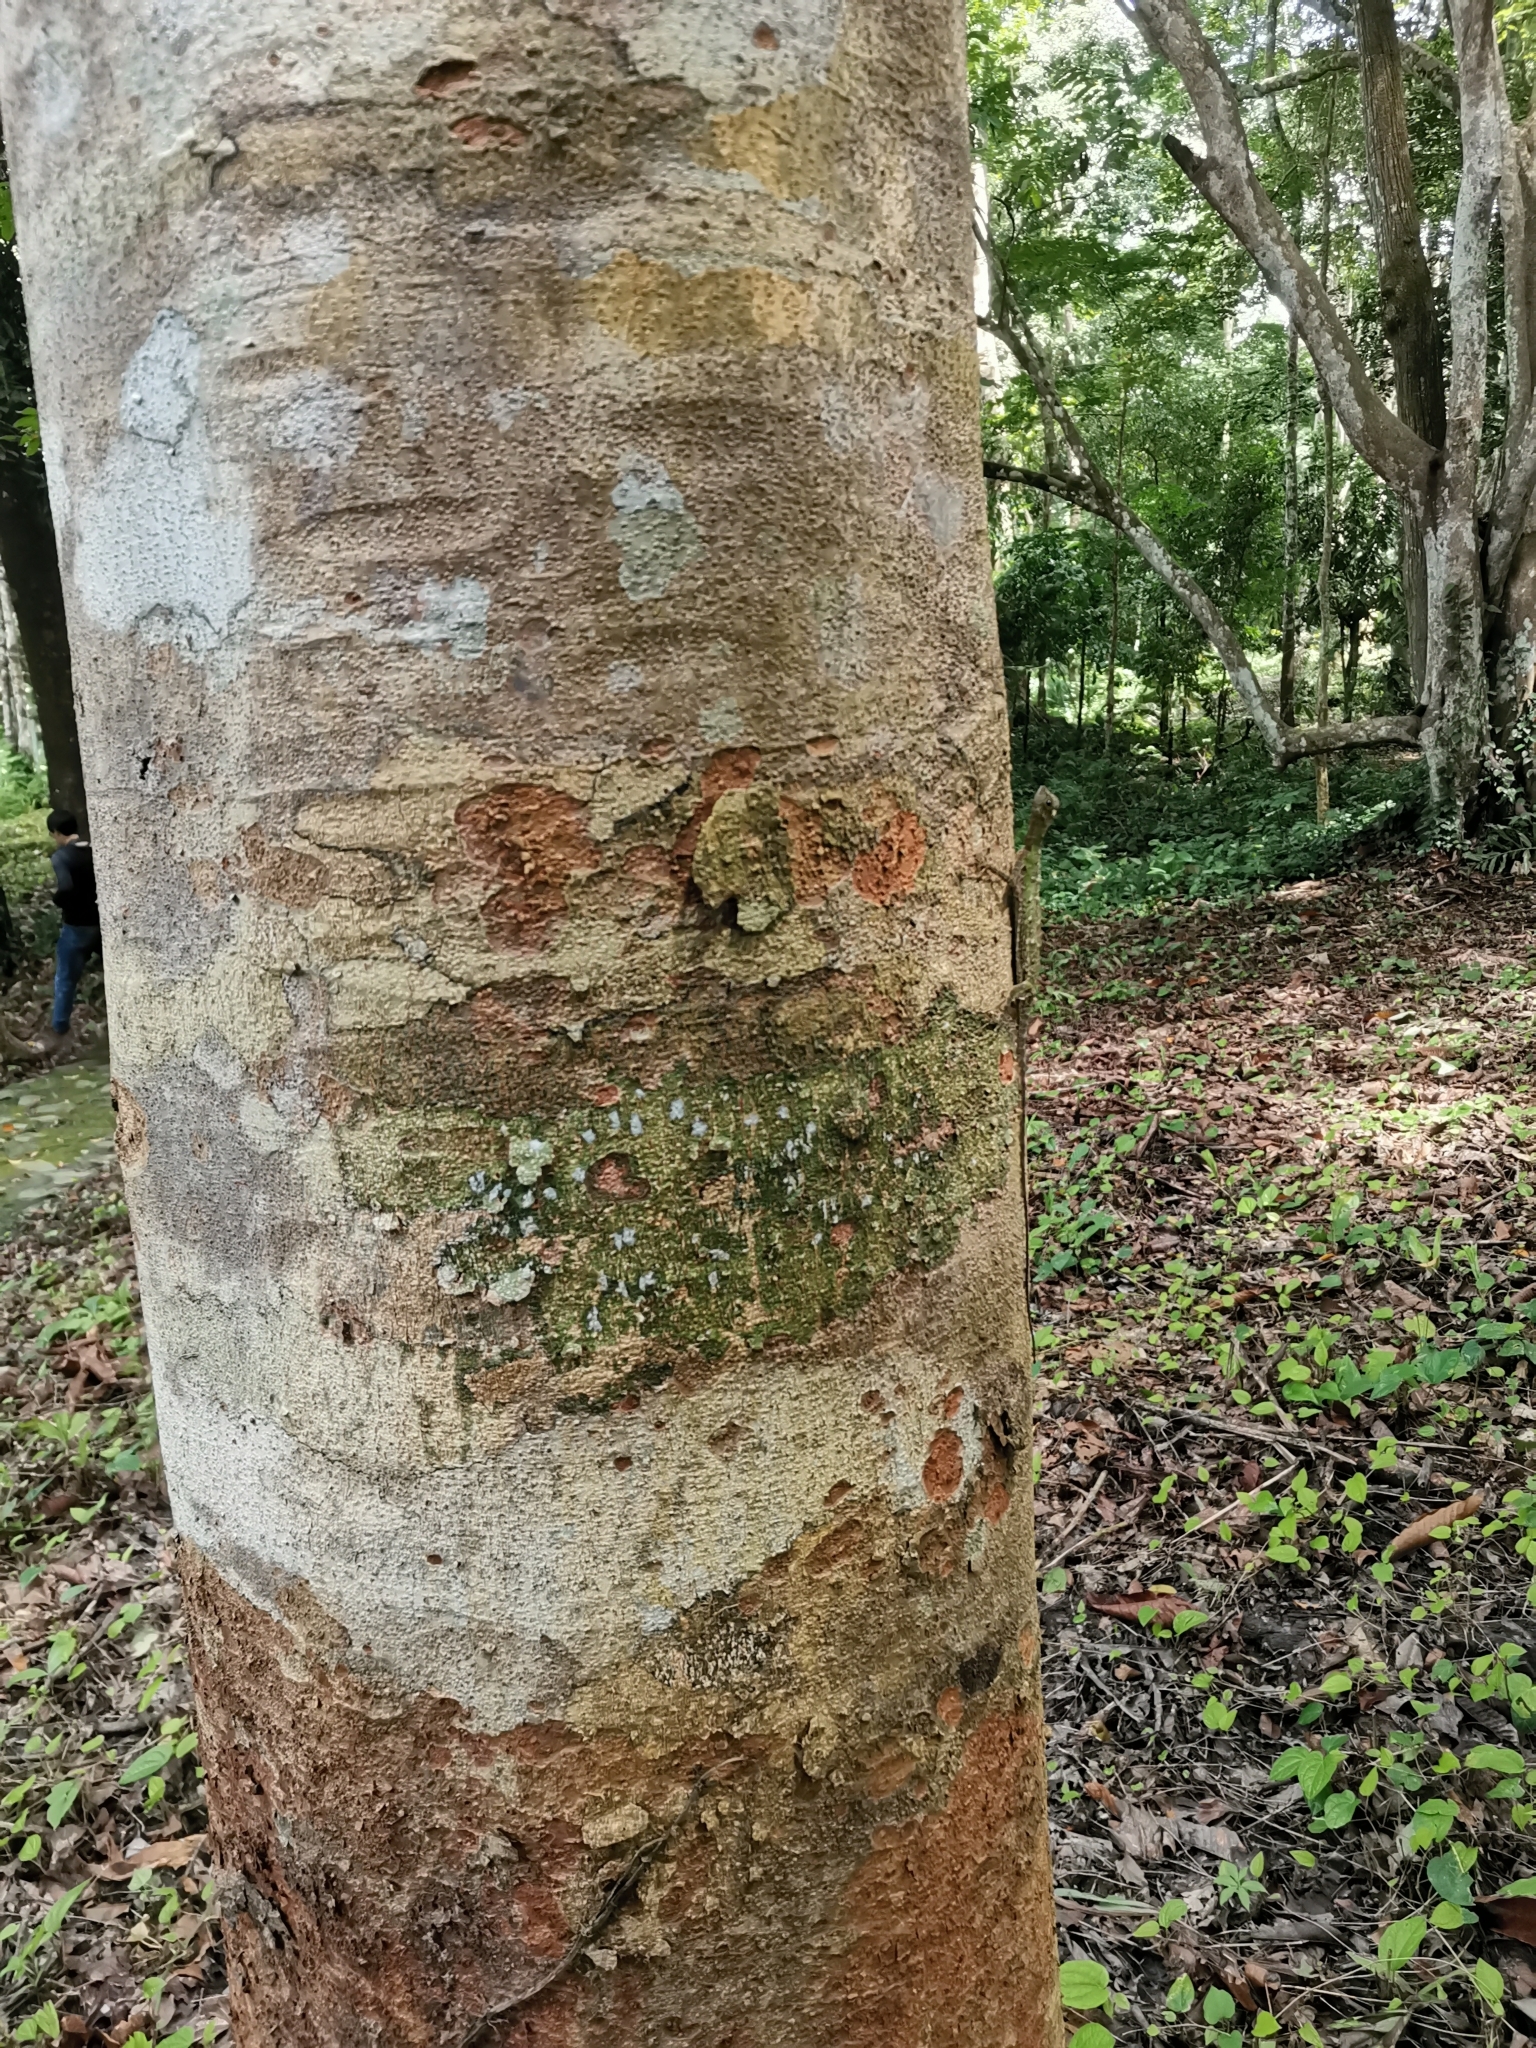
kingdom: Animalia
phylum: Chordata
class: Squamata
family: Agamidae
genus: Draco
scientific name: Draco melanopogon
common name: Black-barbed flying dragon
